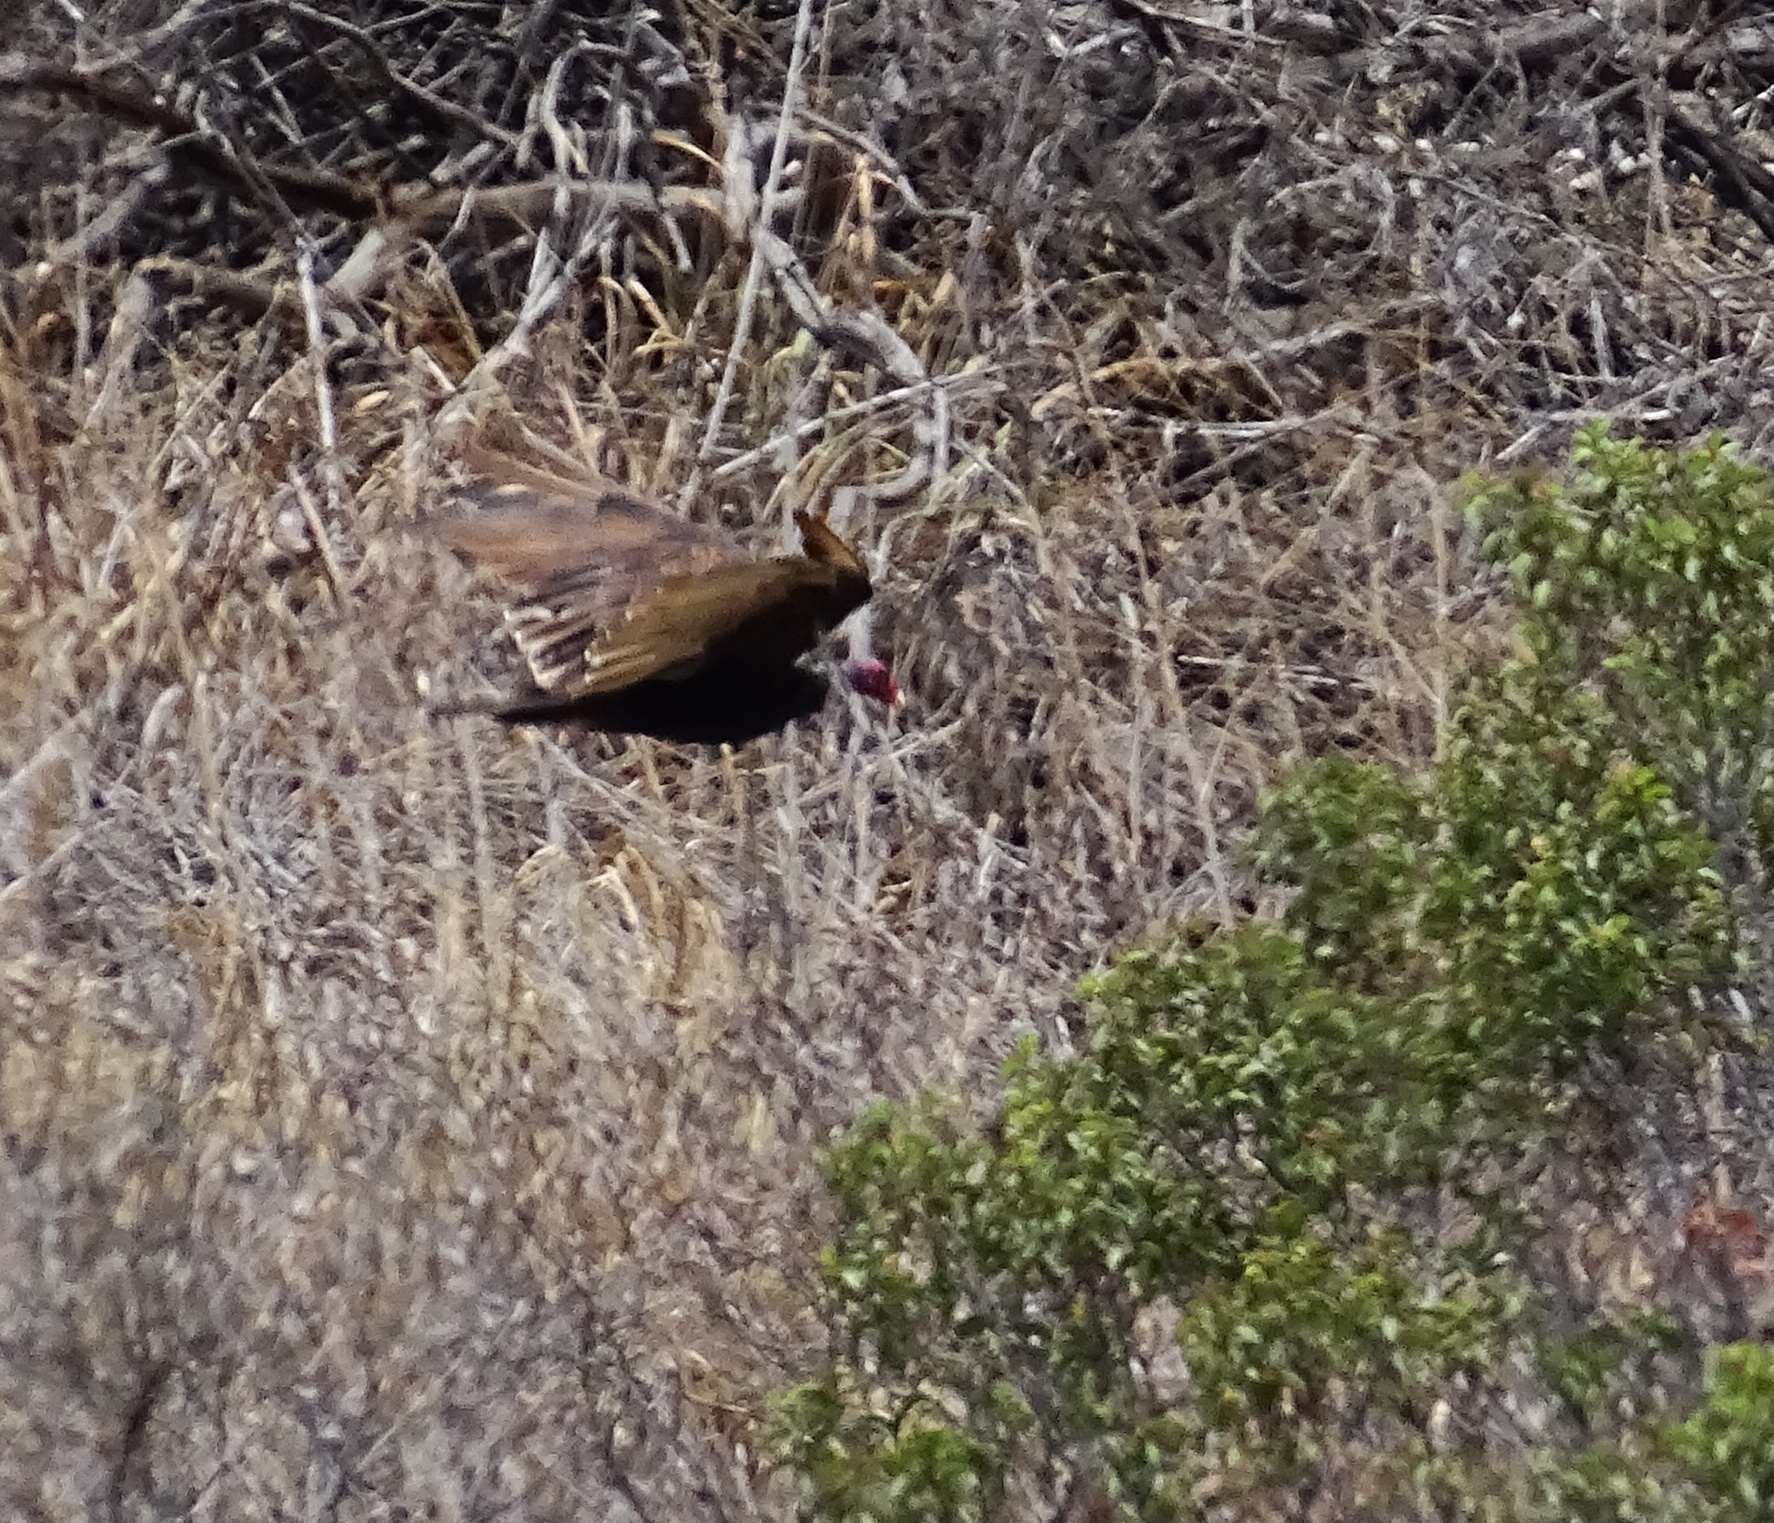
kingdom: Animalia
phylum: Chordata
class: Aves
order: Accipitriformes
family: Cathartidae
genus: Cathartes
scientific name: Cathartes aura
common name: Turkey vulture
